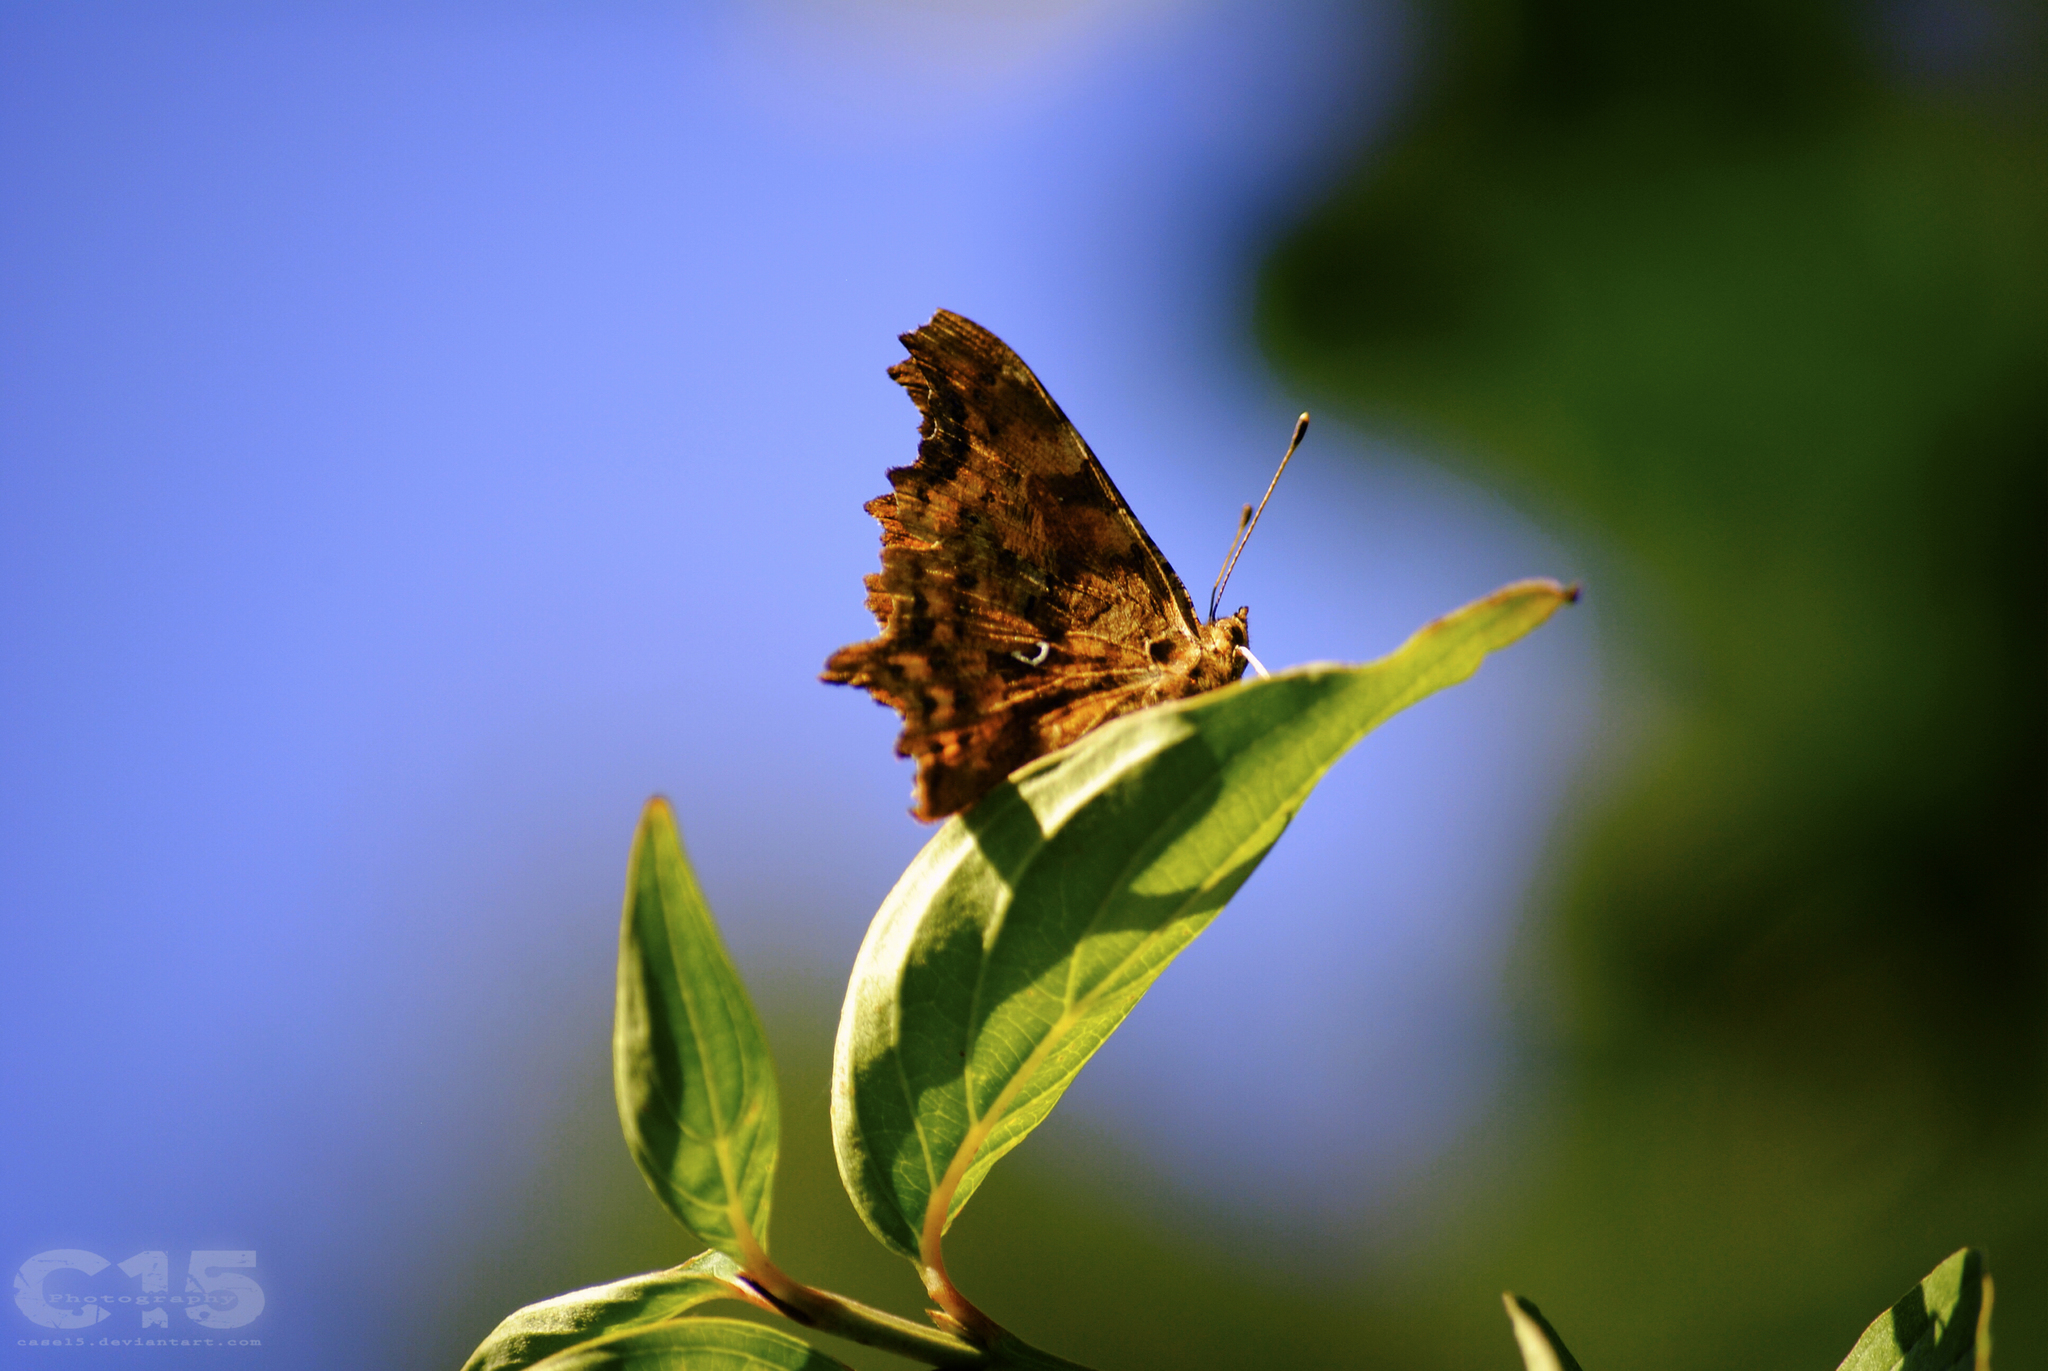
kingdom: Animalia
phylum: Arthropoda
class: Insecta
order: Lepidoptera
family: Nymphalidae
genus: Polygonia
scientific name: Polygonia c-album
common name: Comma
